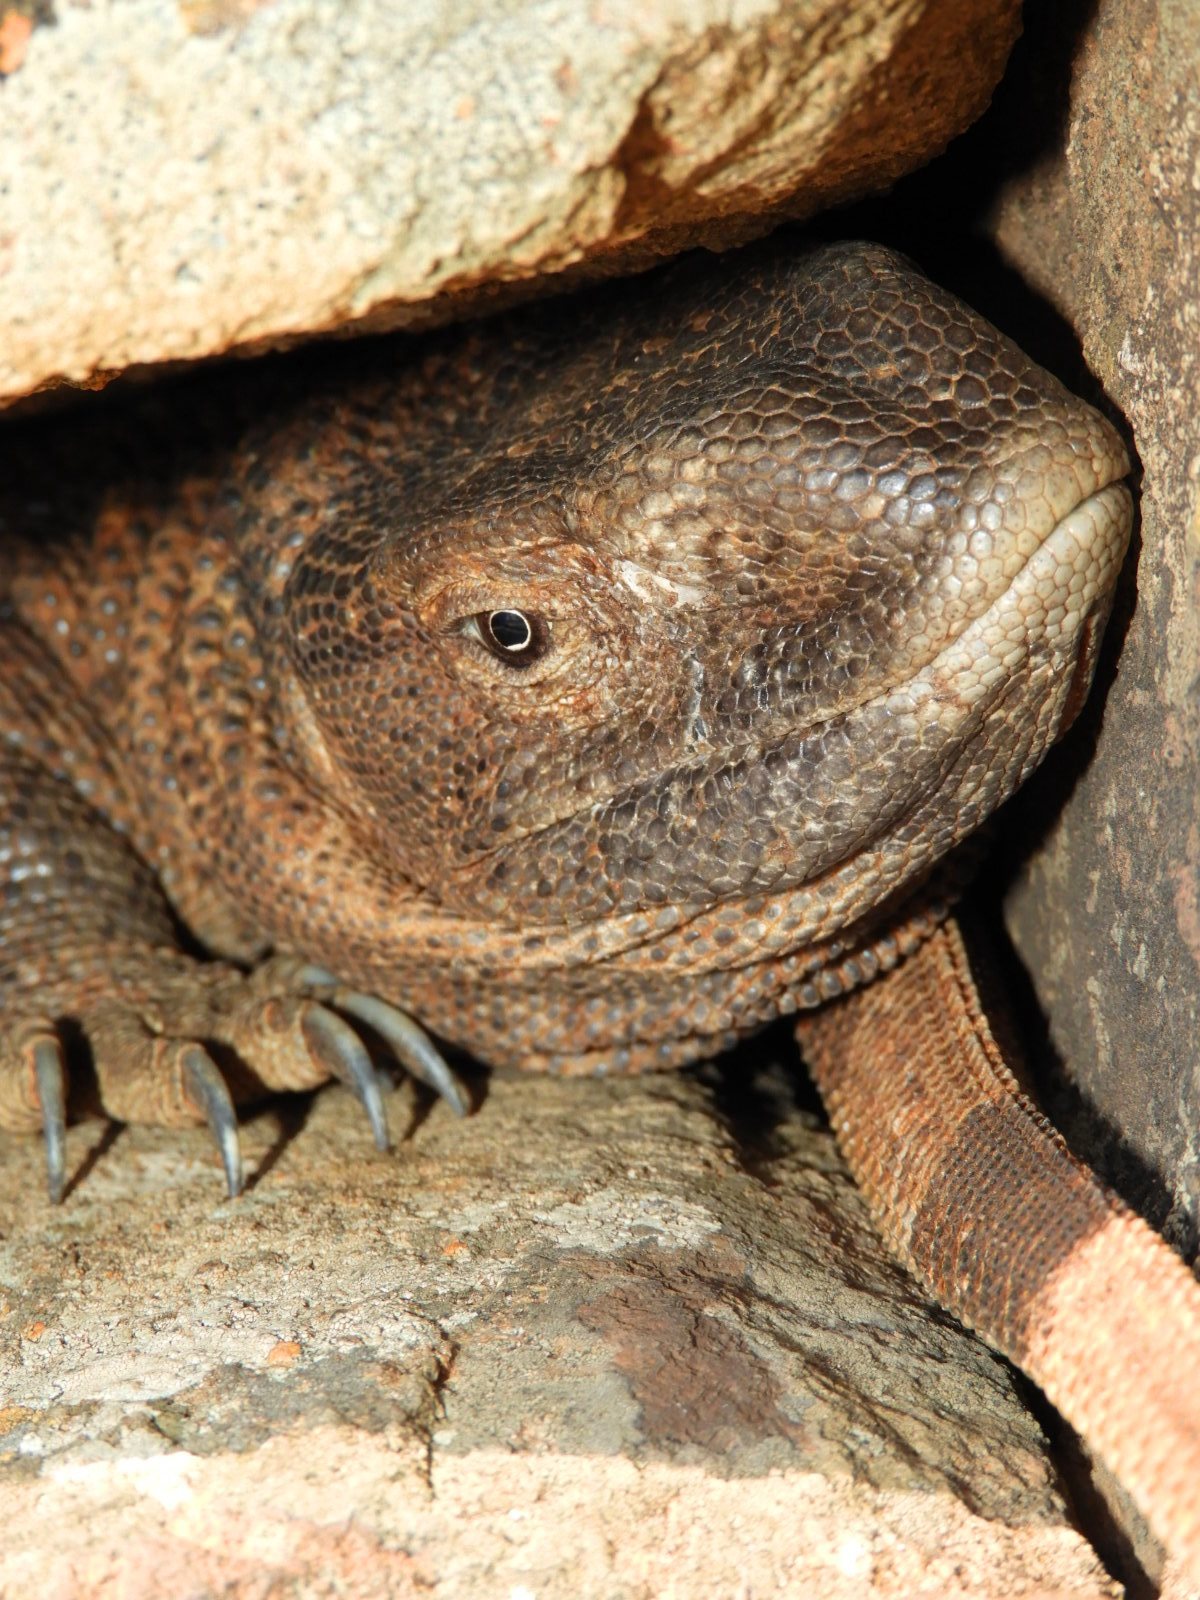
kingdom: Animalia
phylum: Chordata
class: Squamata
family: Varanidae
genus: Varanus
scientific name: Varanus albigularis
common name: White-throated monitor
